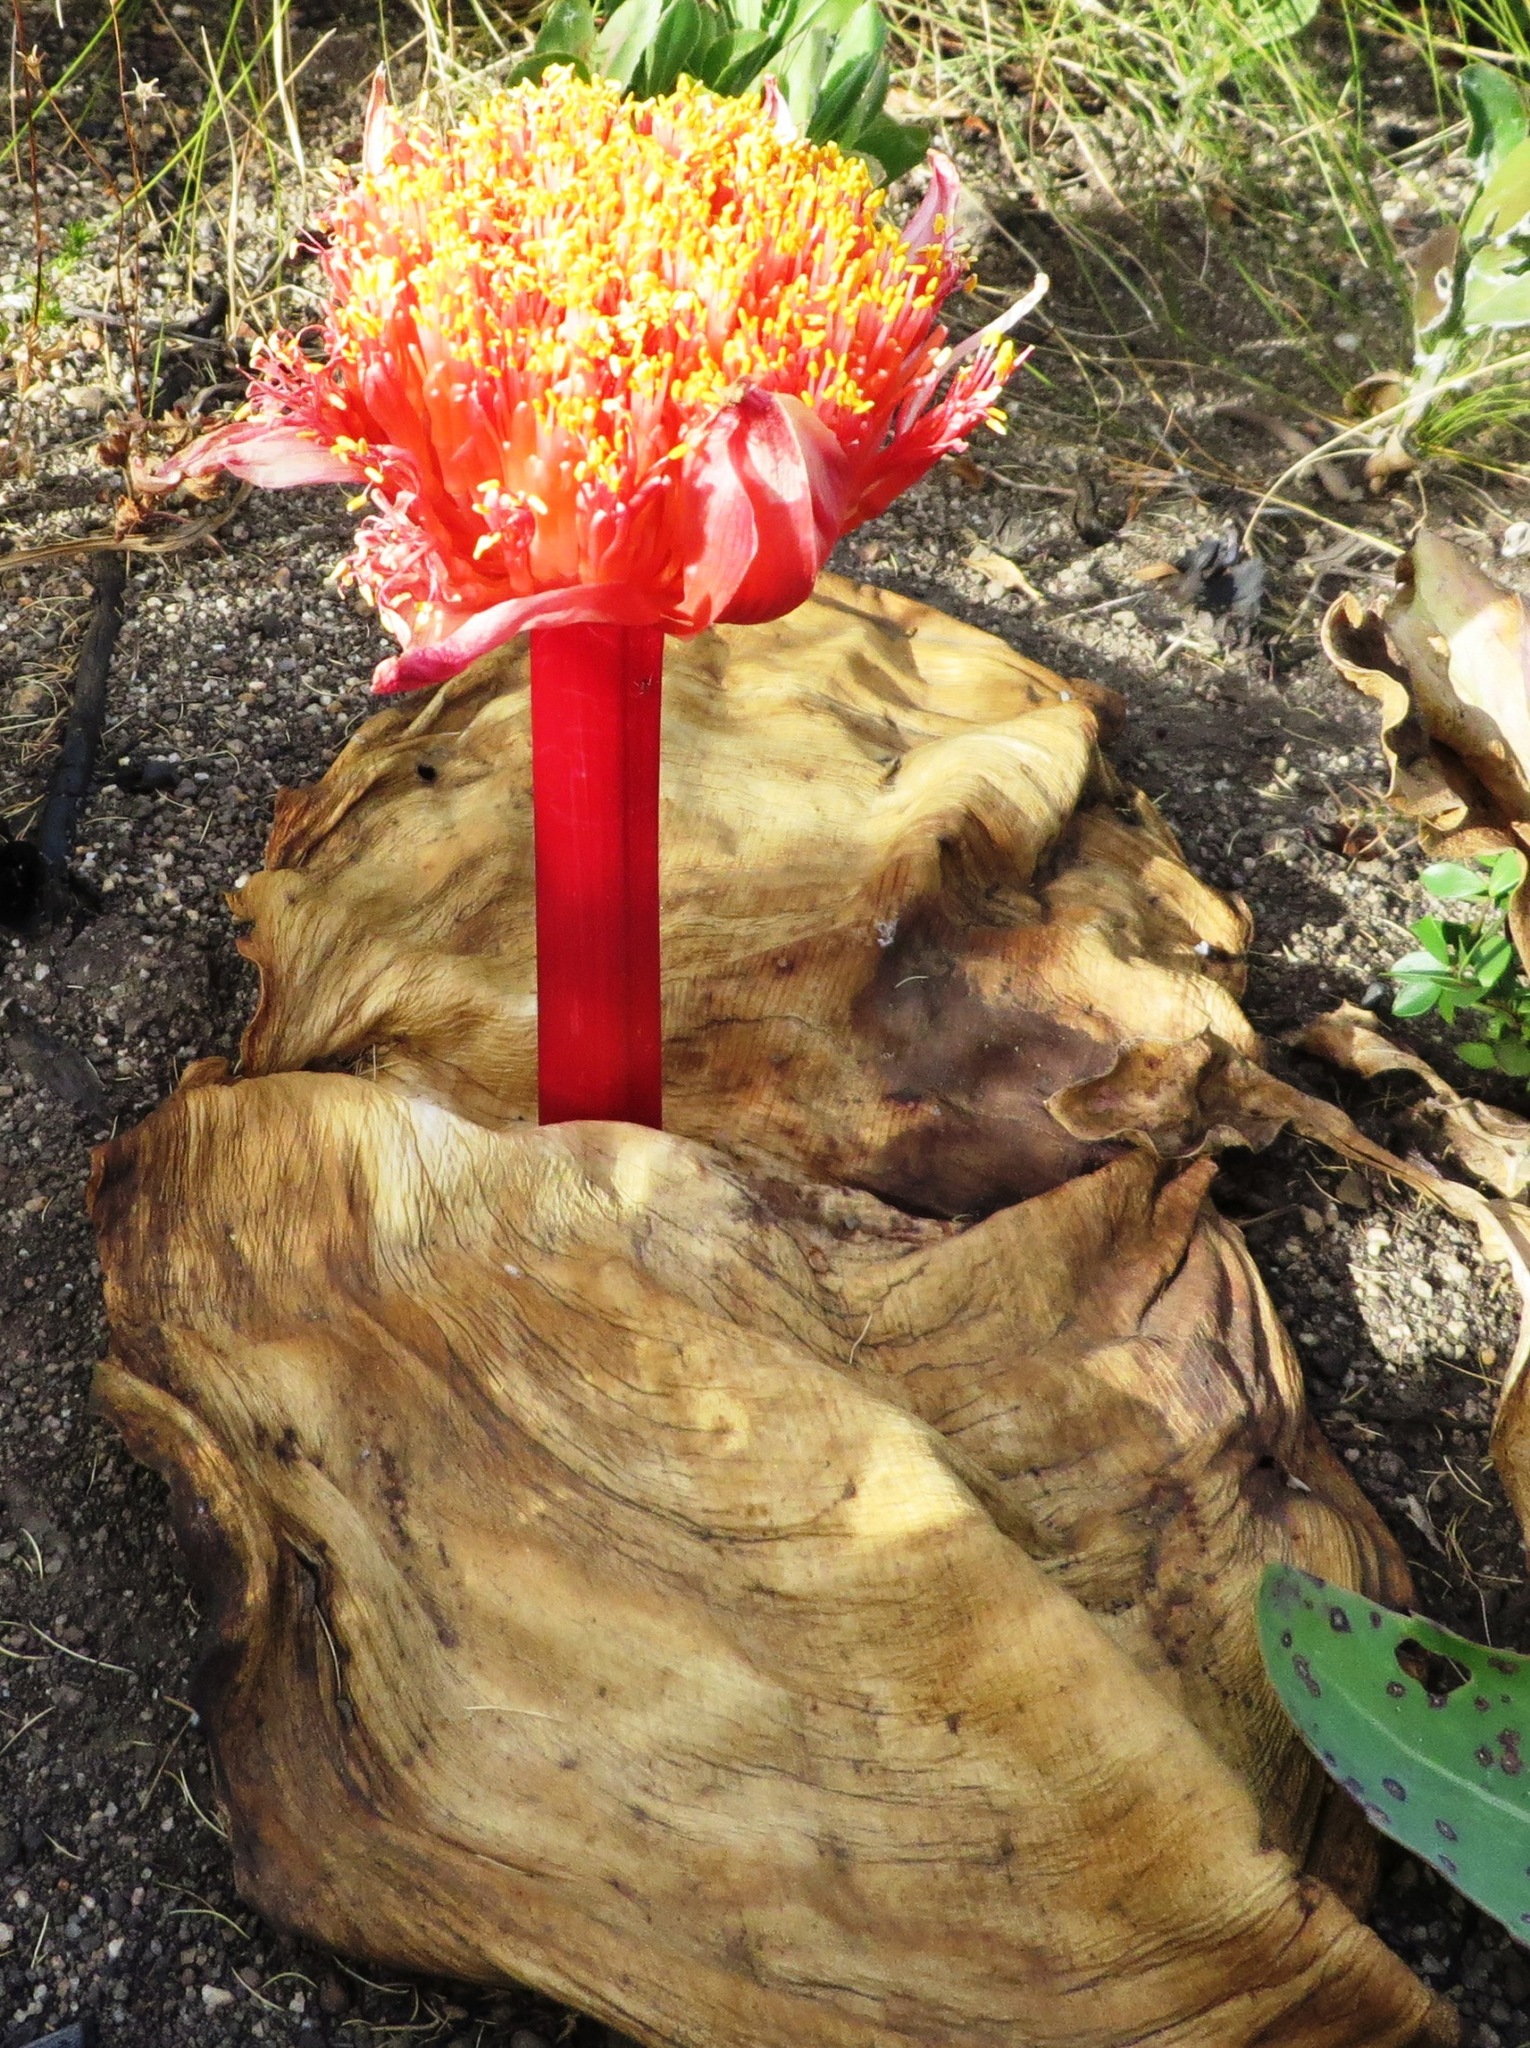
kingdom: Plantae
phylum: Tracheophyta
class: Liliopsida
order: Asparagales
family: Amaryllidaceae
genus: Haemanthus
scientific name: Haemanthus sanguineus
